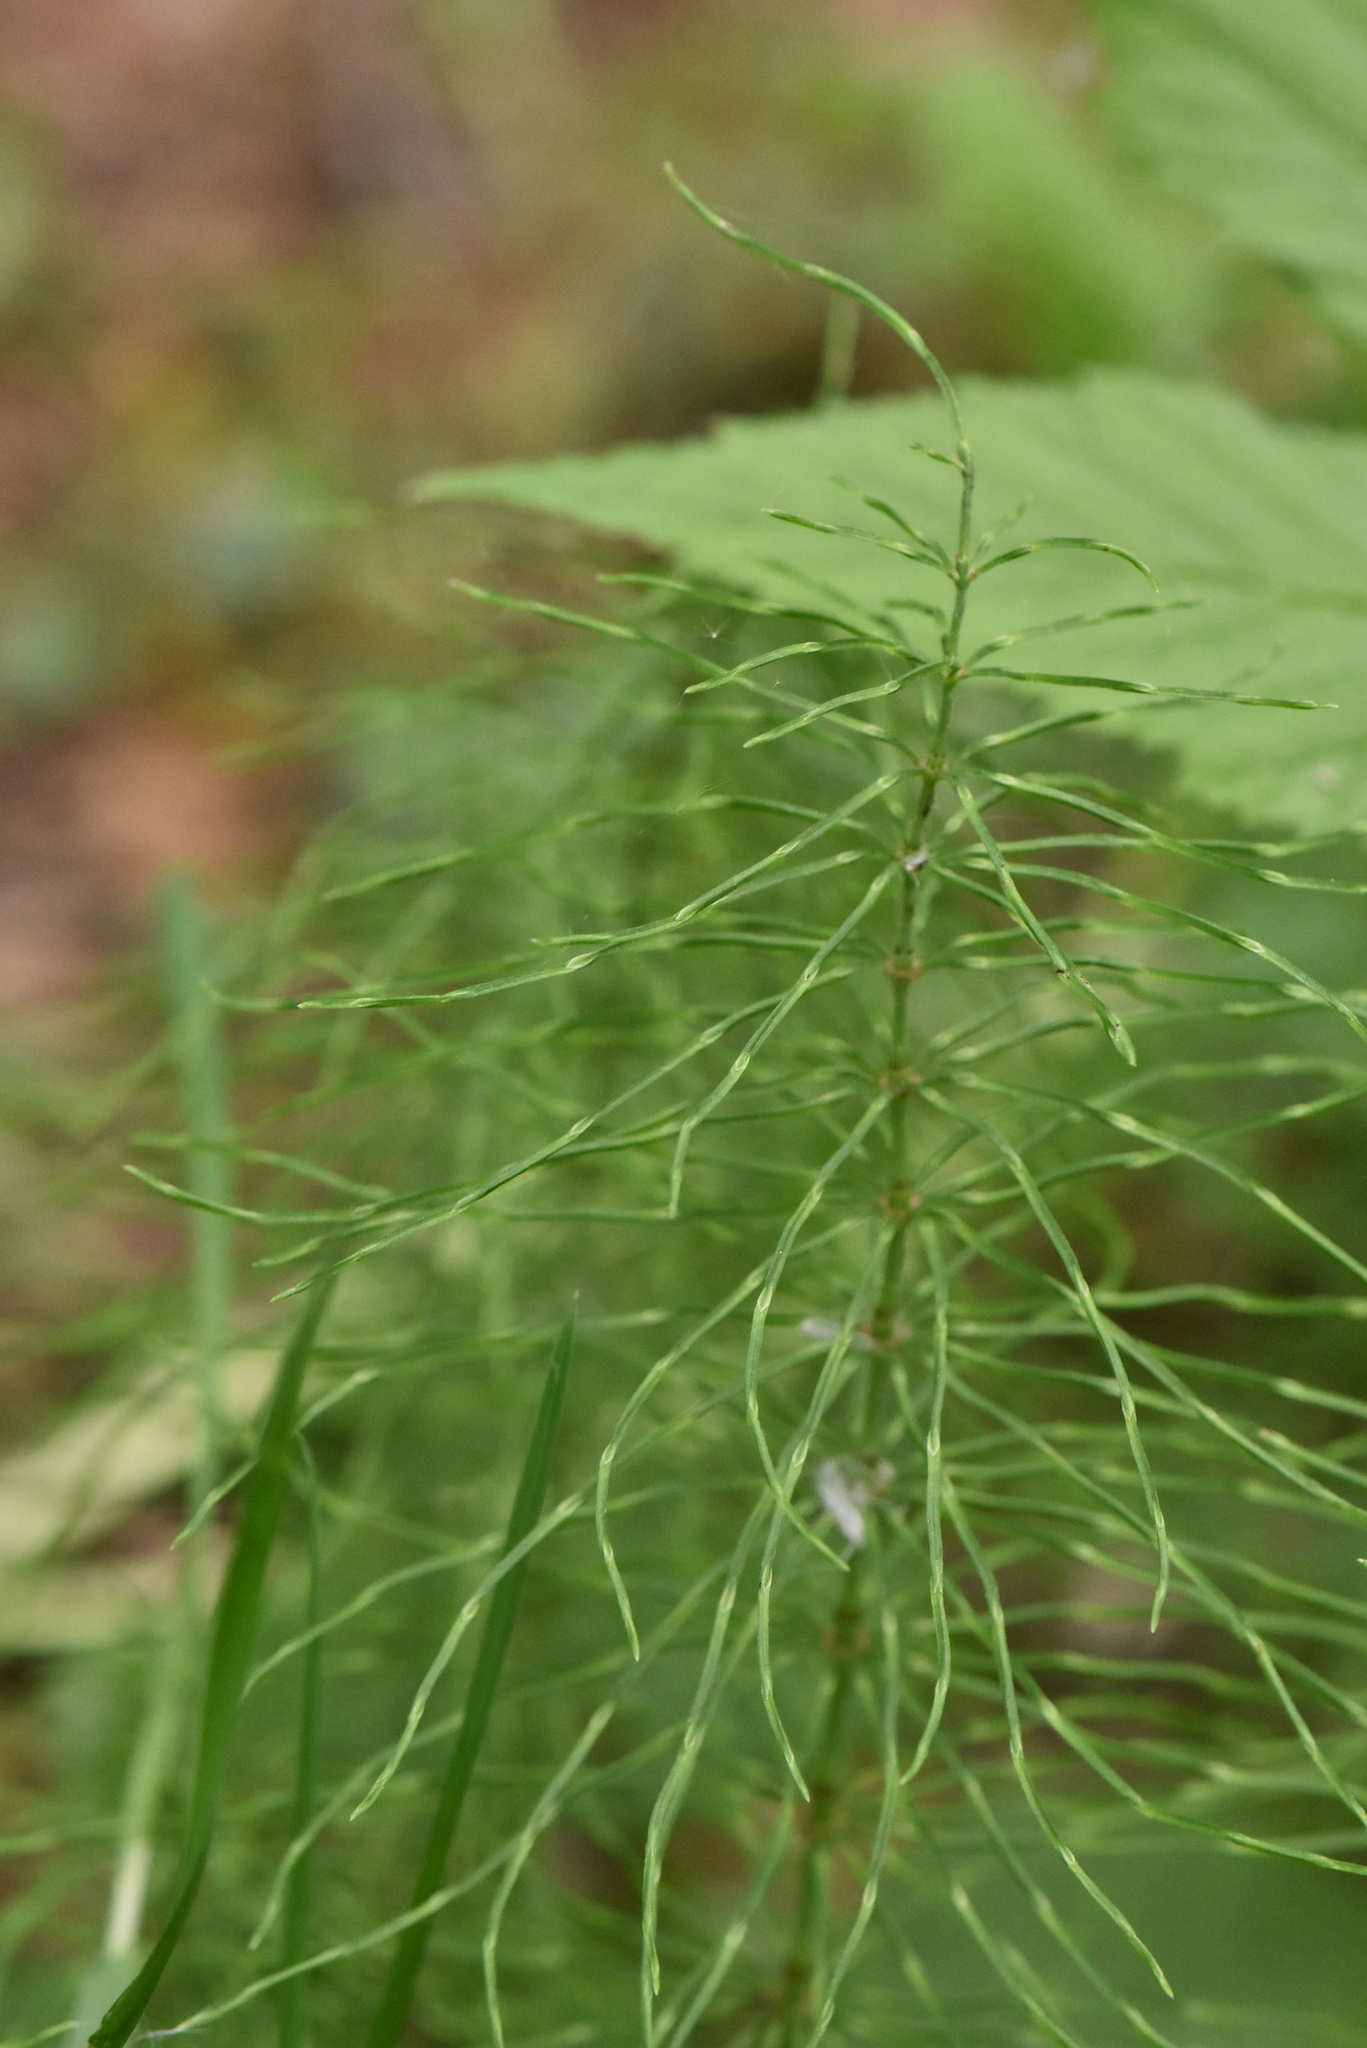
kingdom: Plantae
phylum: Tracheophyta
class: Polypodiopsida
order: Equisetales
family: Equisetaceae
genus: Equisetum
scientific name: Equisetum pratense
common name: Meadow horsetail
